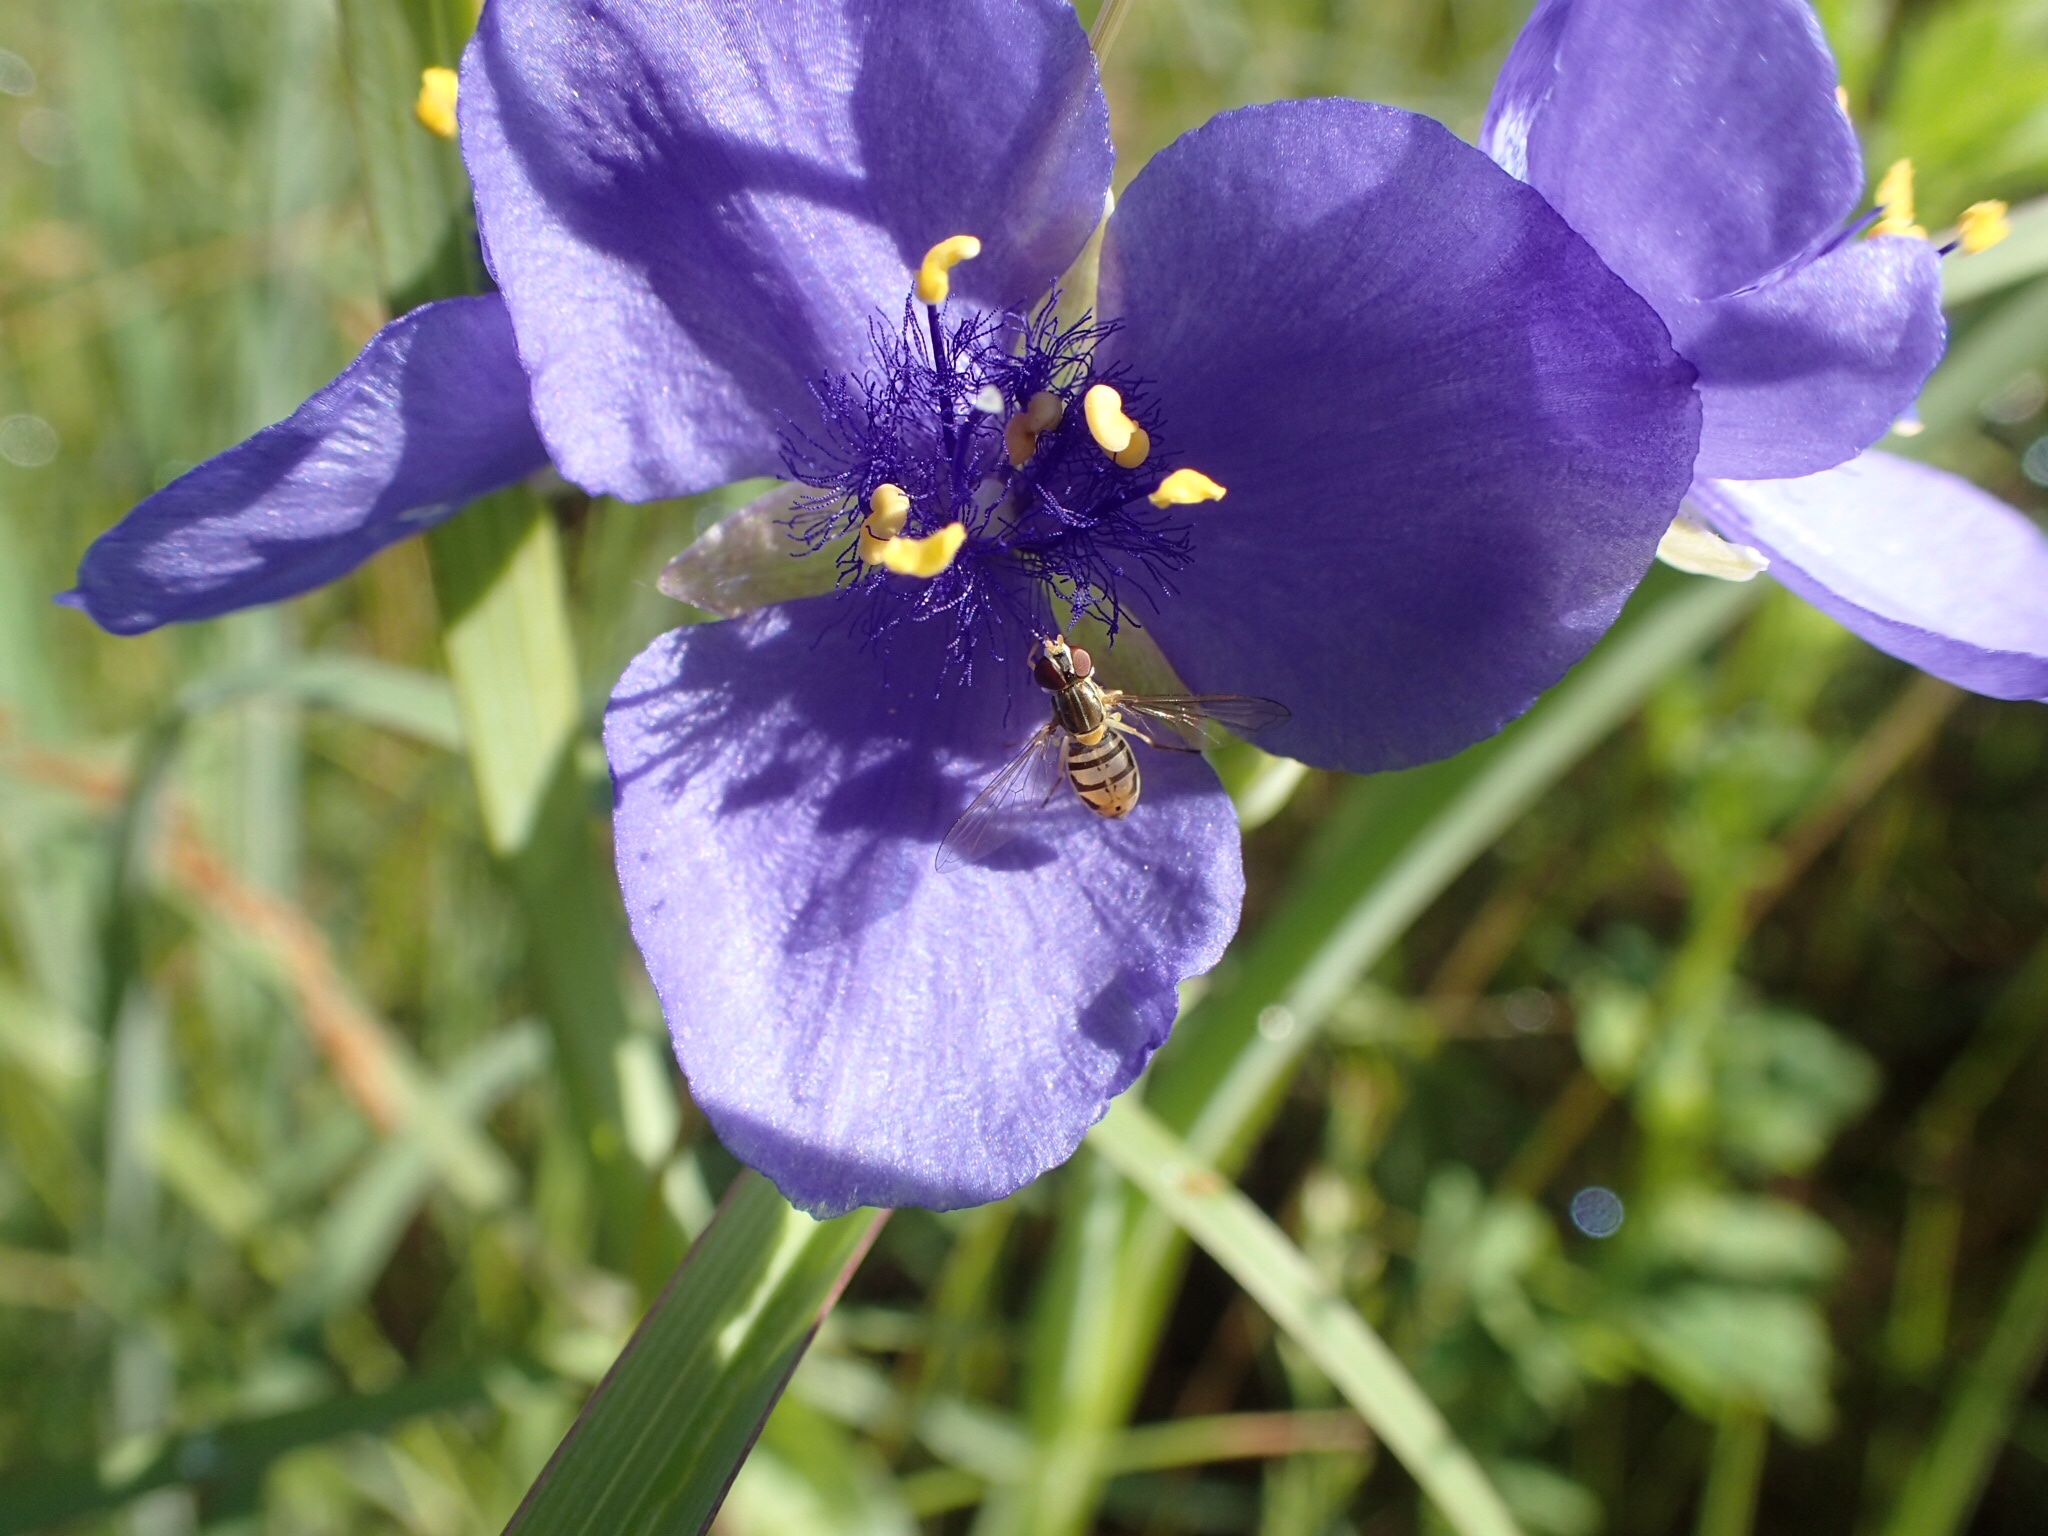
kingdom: Animalia
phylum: Arthropoda
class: Insecta
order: Diptera
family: Syrphidae
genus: Toxomerus
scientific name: Toxomerus marginatus
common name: Syrphid fly
